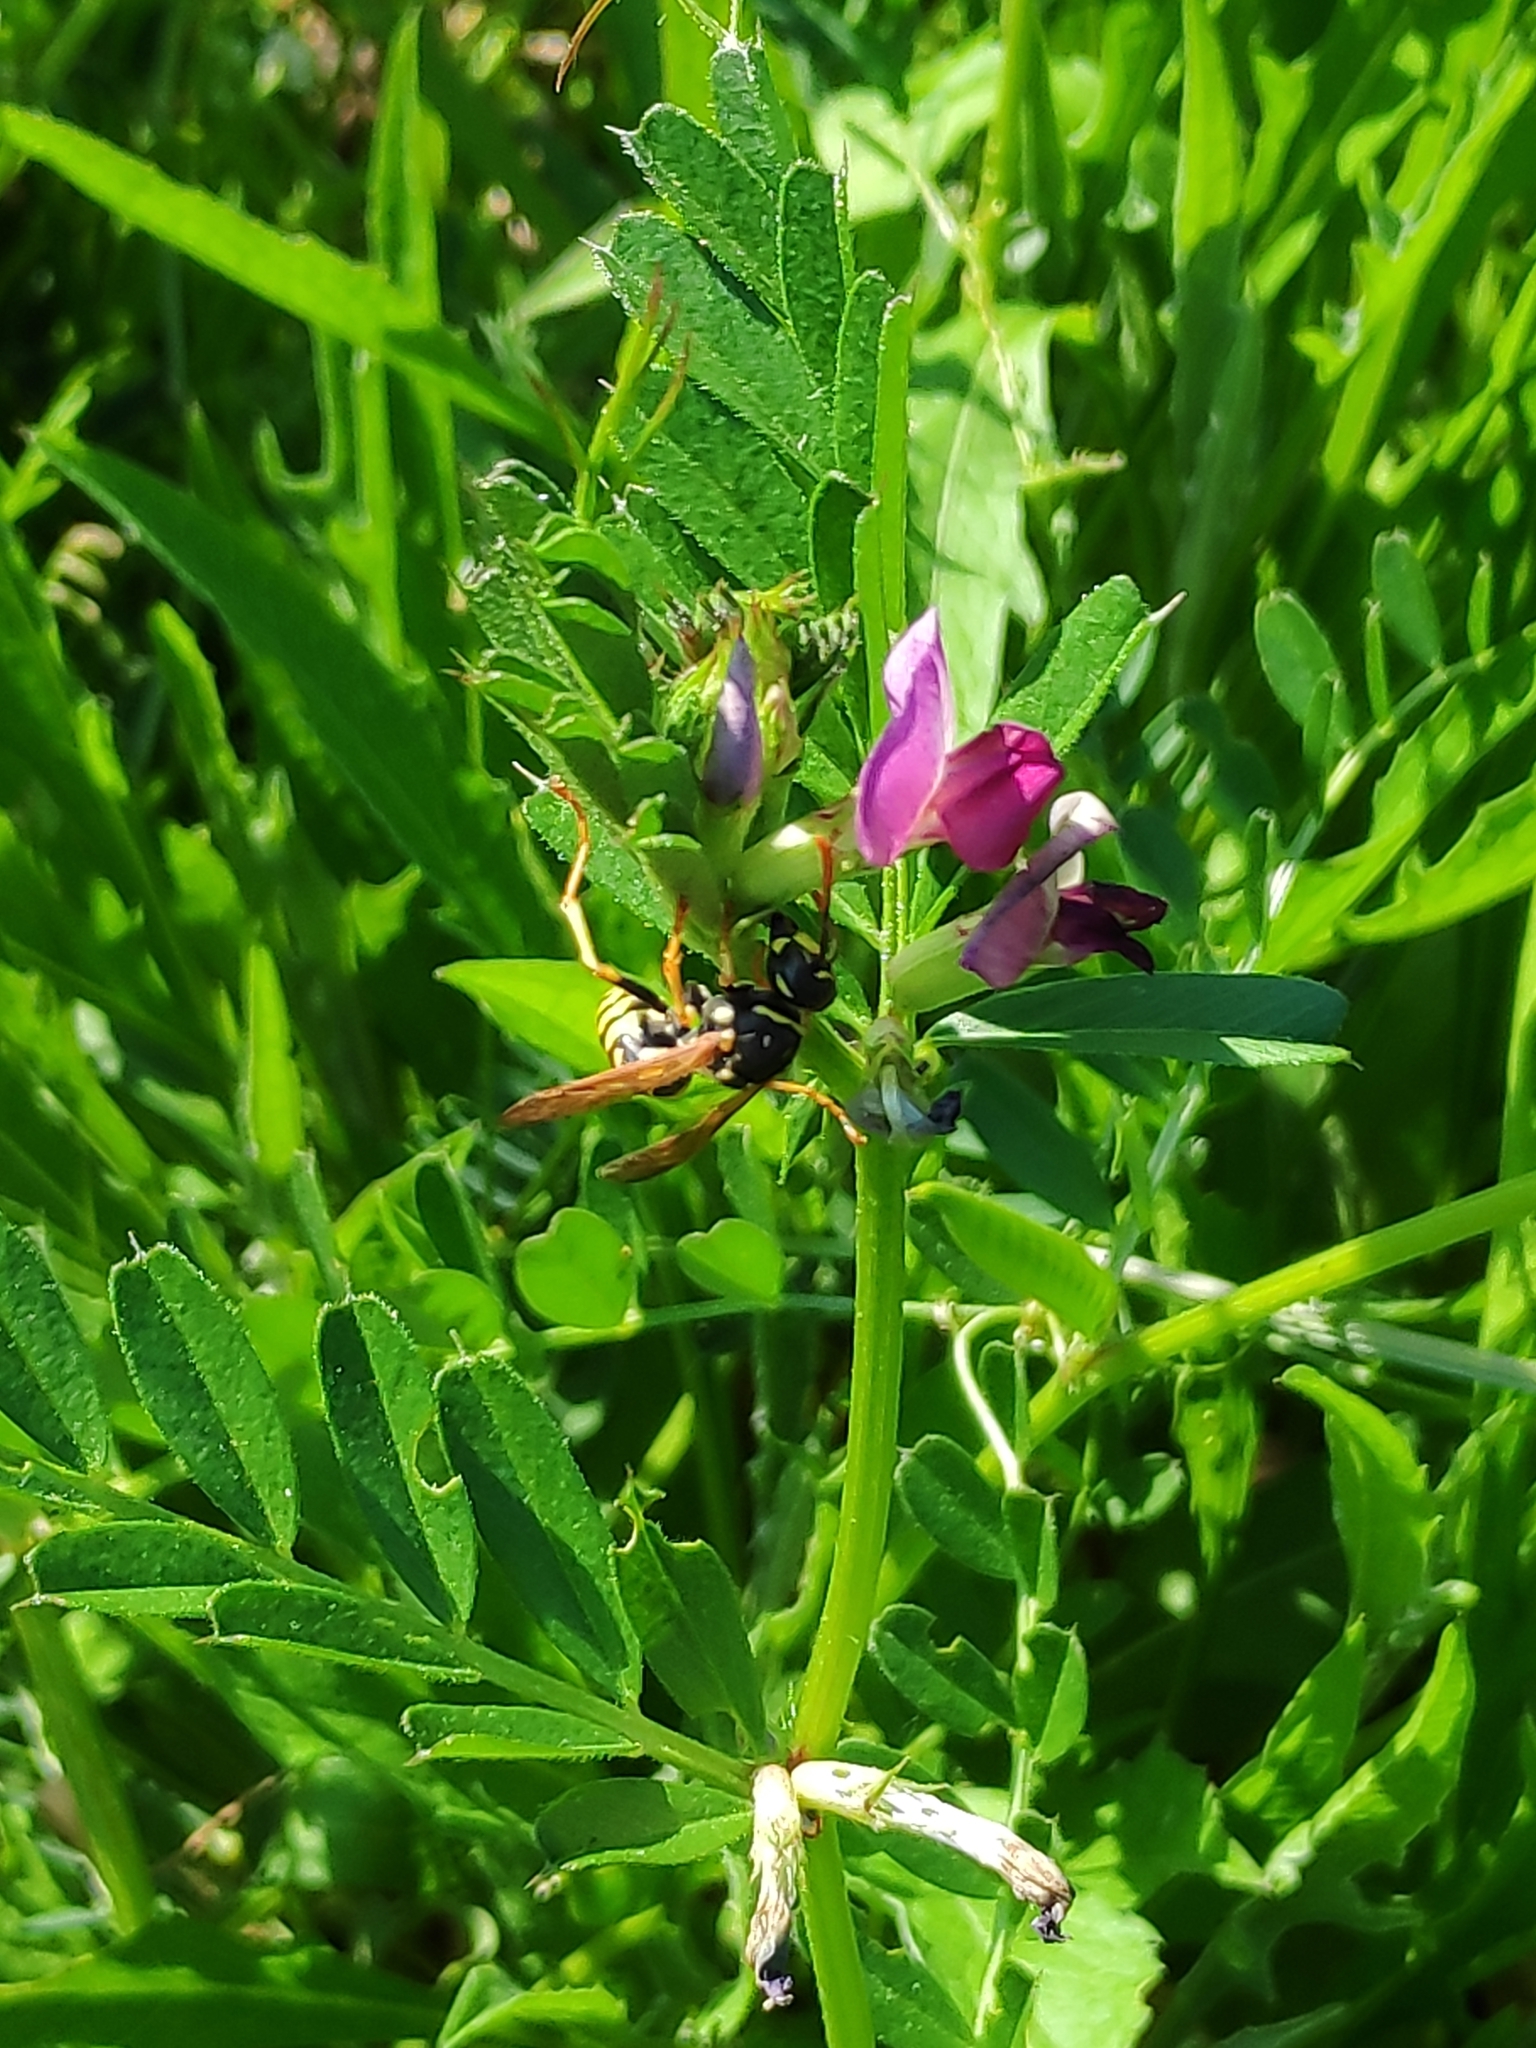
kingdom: Animalia
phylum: Arthropoda
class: Insecta
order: Hymenoptera
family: Eumenidae
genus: Polistes
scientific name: Polistes dominula
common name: Paper wasp
